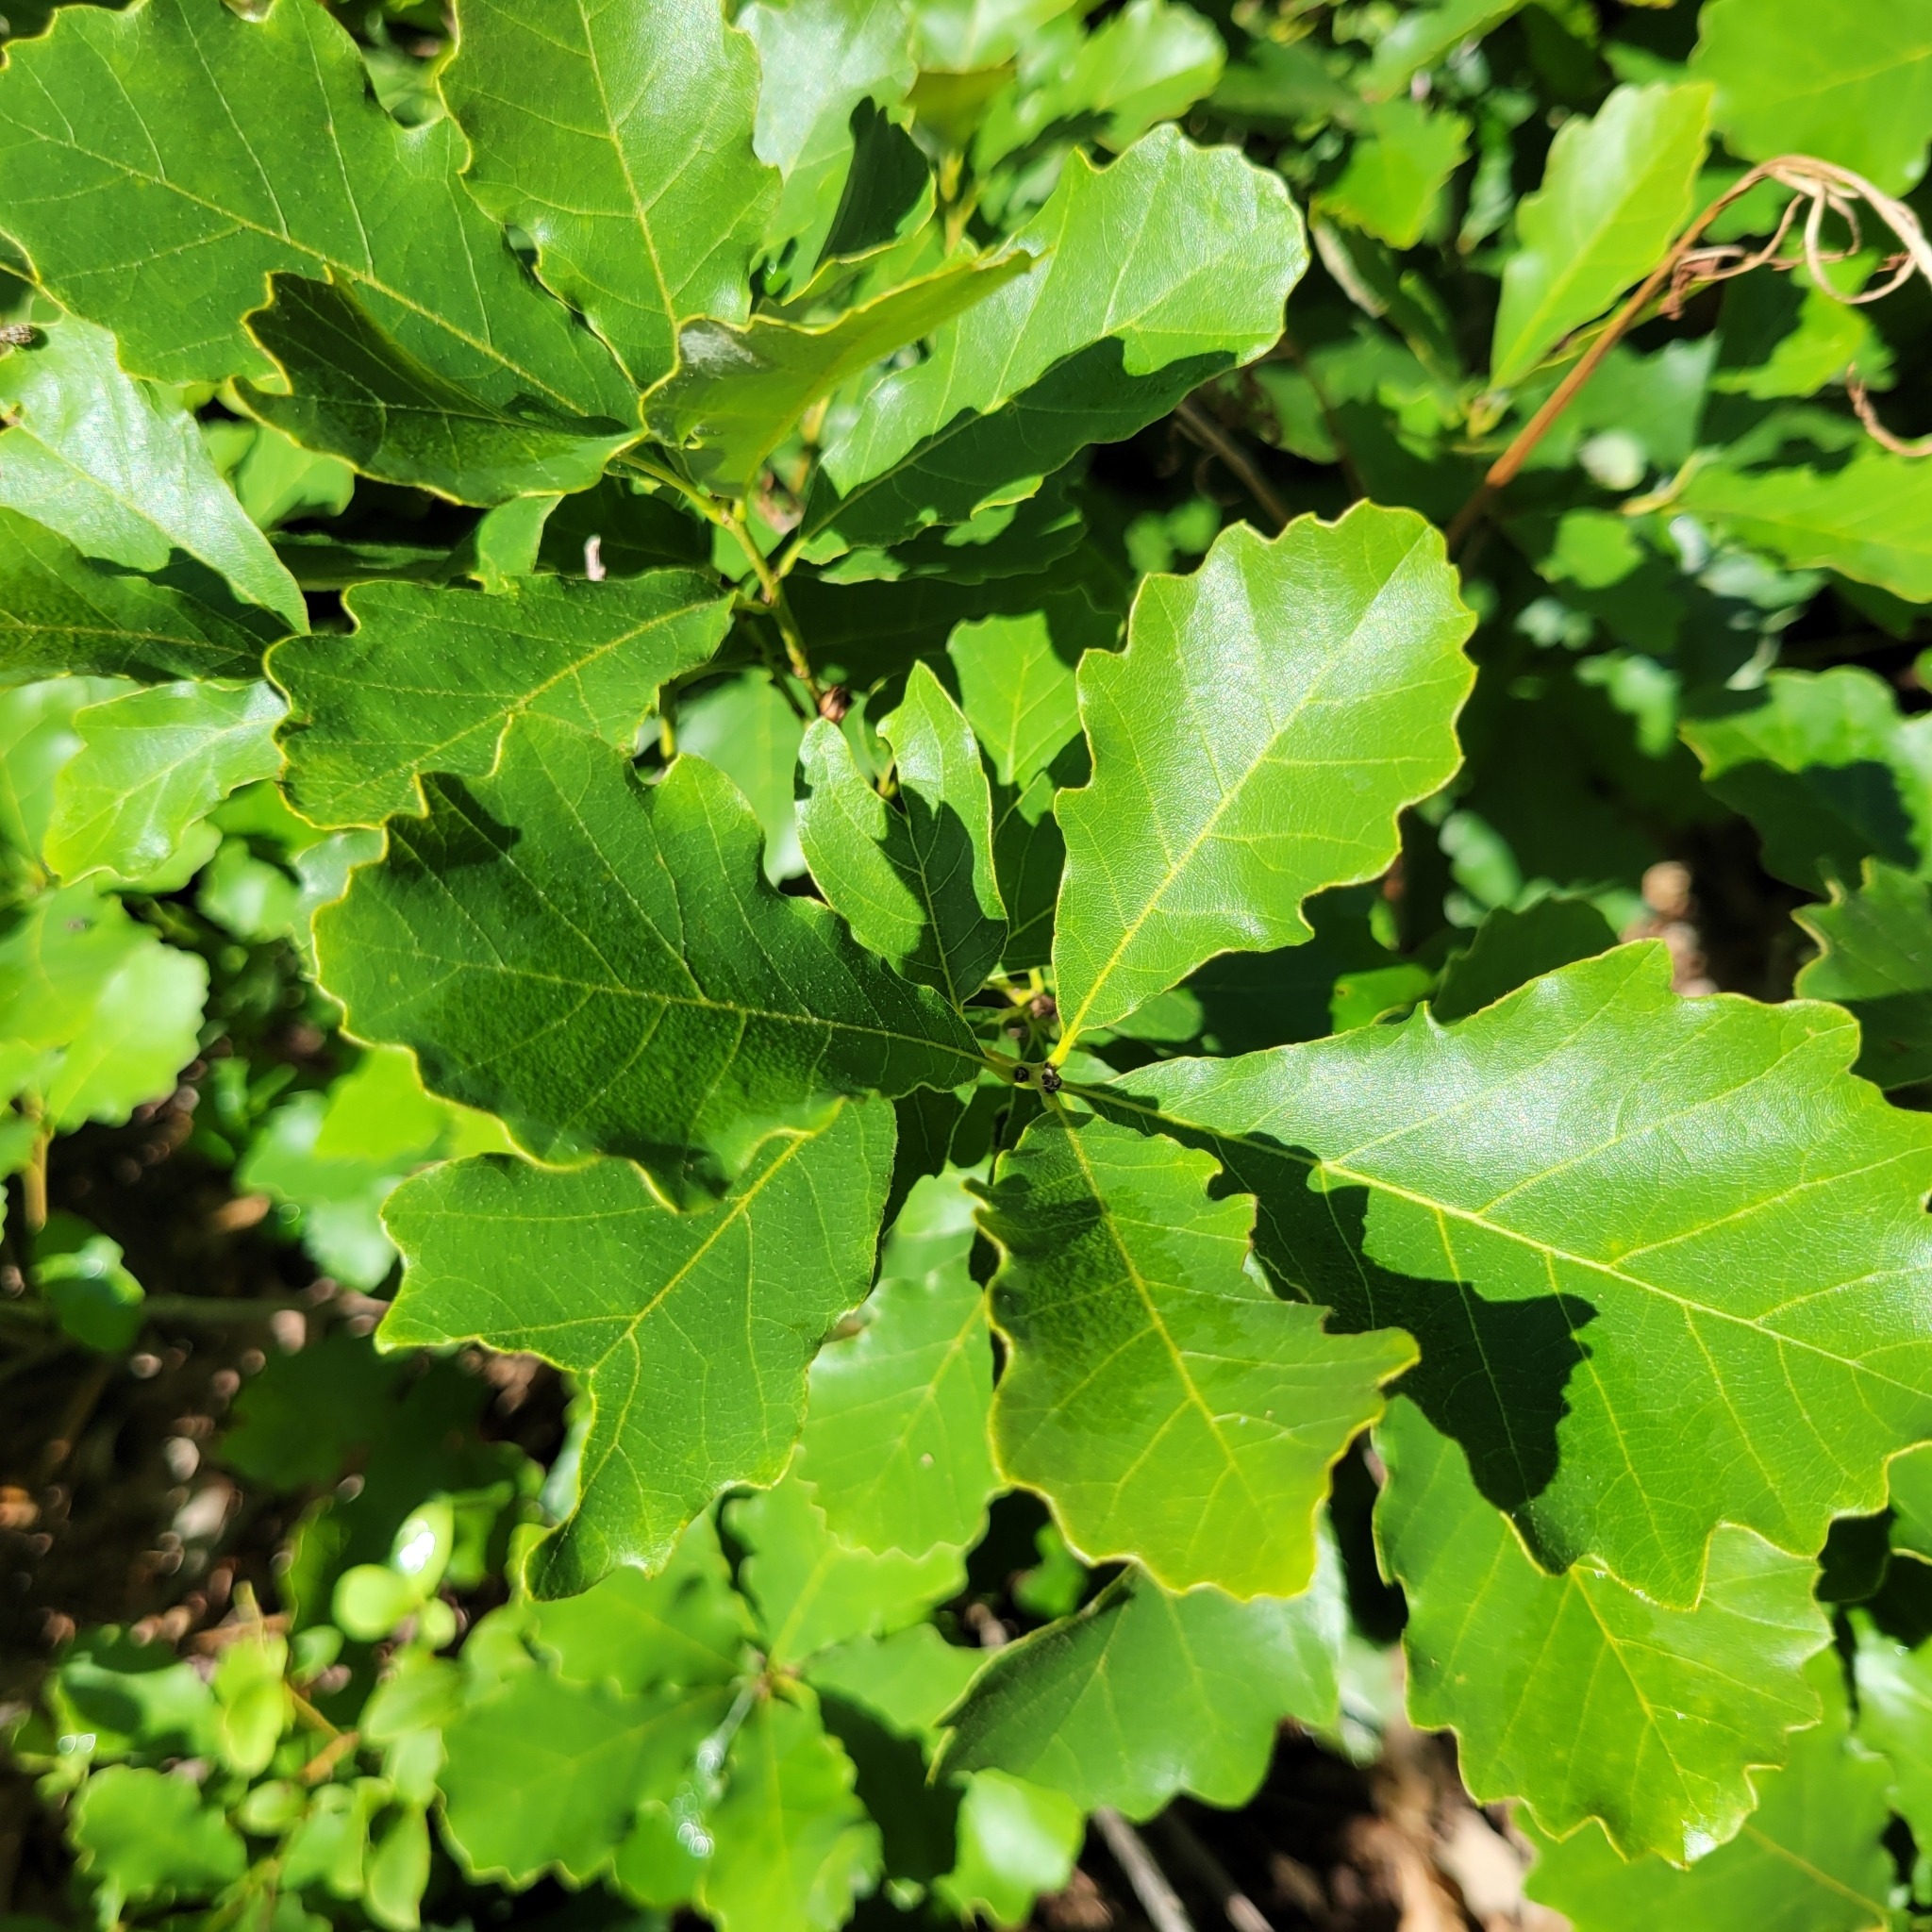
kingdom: Plantae
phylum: Tracheophyta
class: Magnoliopsida
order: Fagales
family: Fagaceae
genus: Quercus
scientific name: Quercus prinoides
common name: Dwarf chinkapin oak
